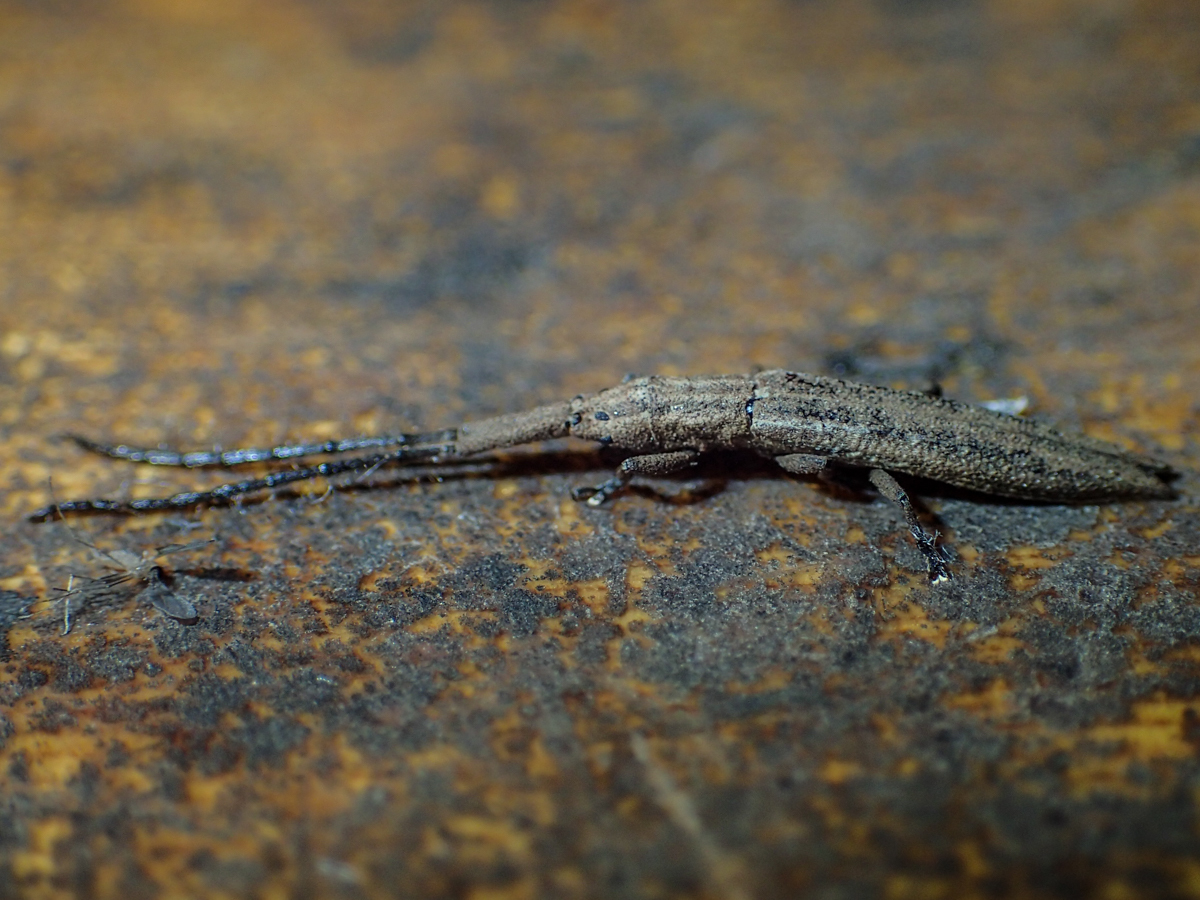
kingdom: Animalia
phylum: Arthropoda
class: Insecta
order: Coleoptera
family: Cerambycidae
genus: Tetraglenes
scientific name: Tetraglenes hirticornis
